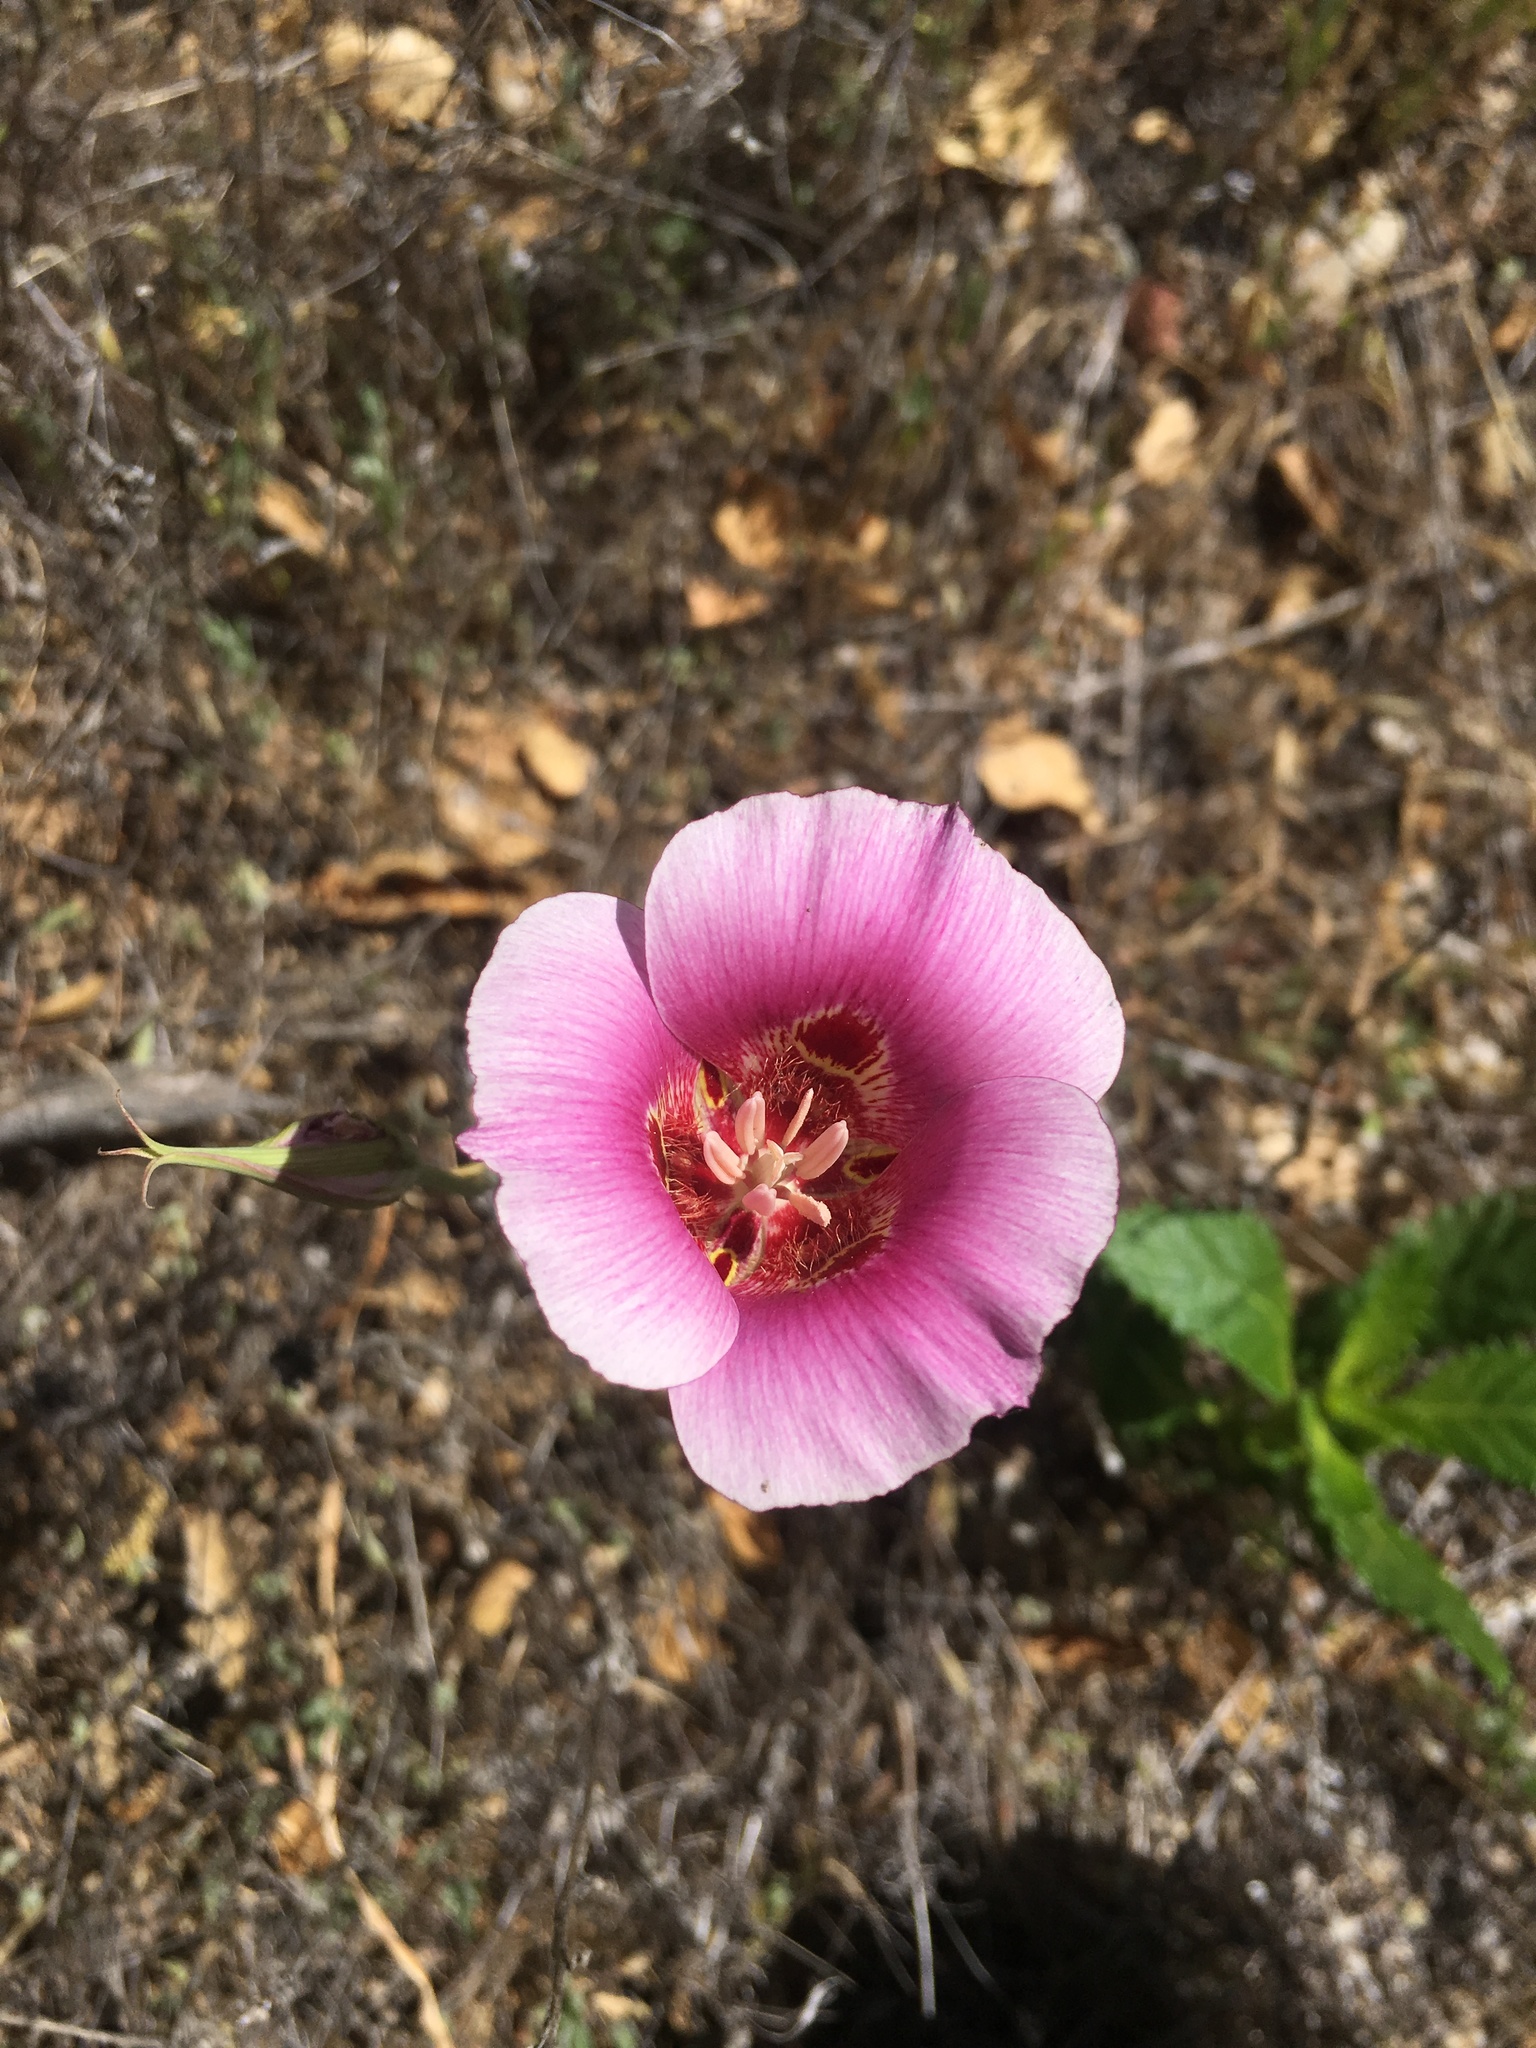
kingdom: Plantae
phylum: Tracheophyta
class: Liliopsida
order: Liliales
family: Liliaceae
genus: Calochortus
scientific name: Calochortus venustus
